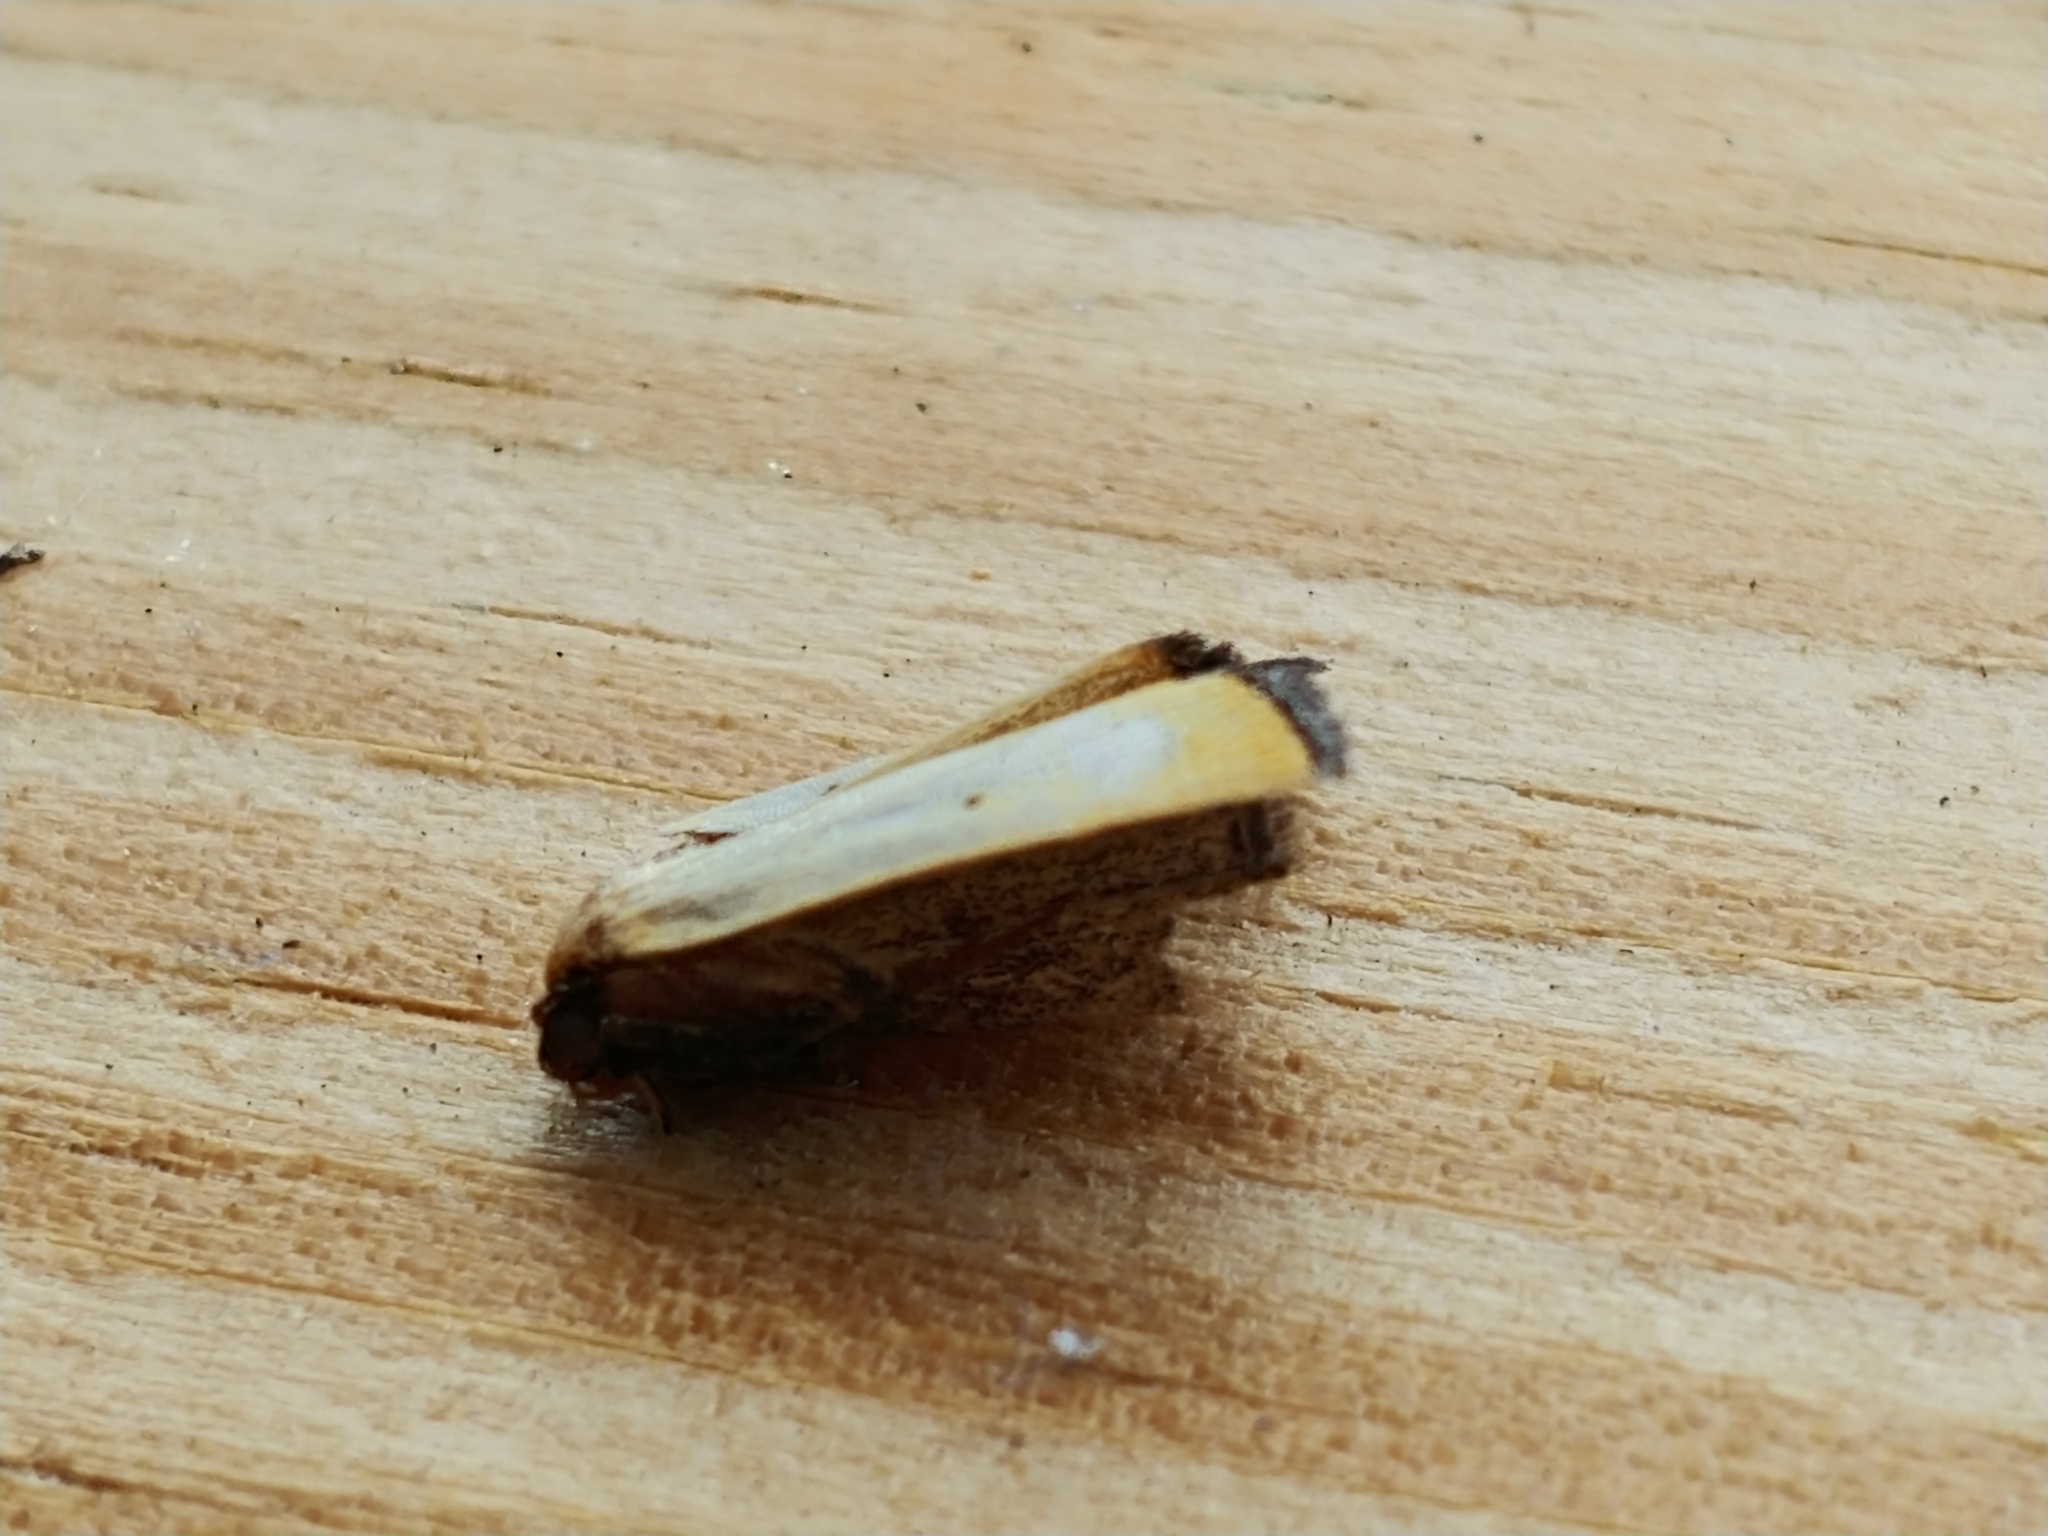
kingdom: Animalia
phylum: Arthropoda
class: Insecta
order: Lepidoptera
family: Noctuidae
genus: Marimatha
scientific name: Marimatha nigrofimbria
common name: Black-bordered lemon moth
